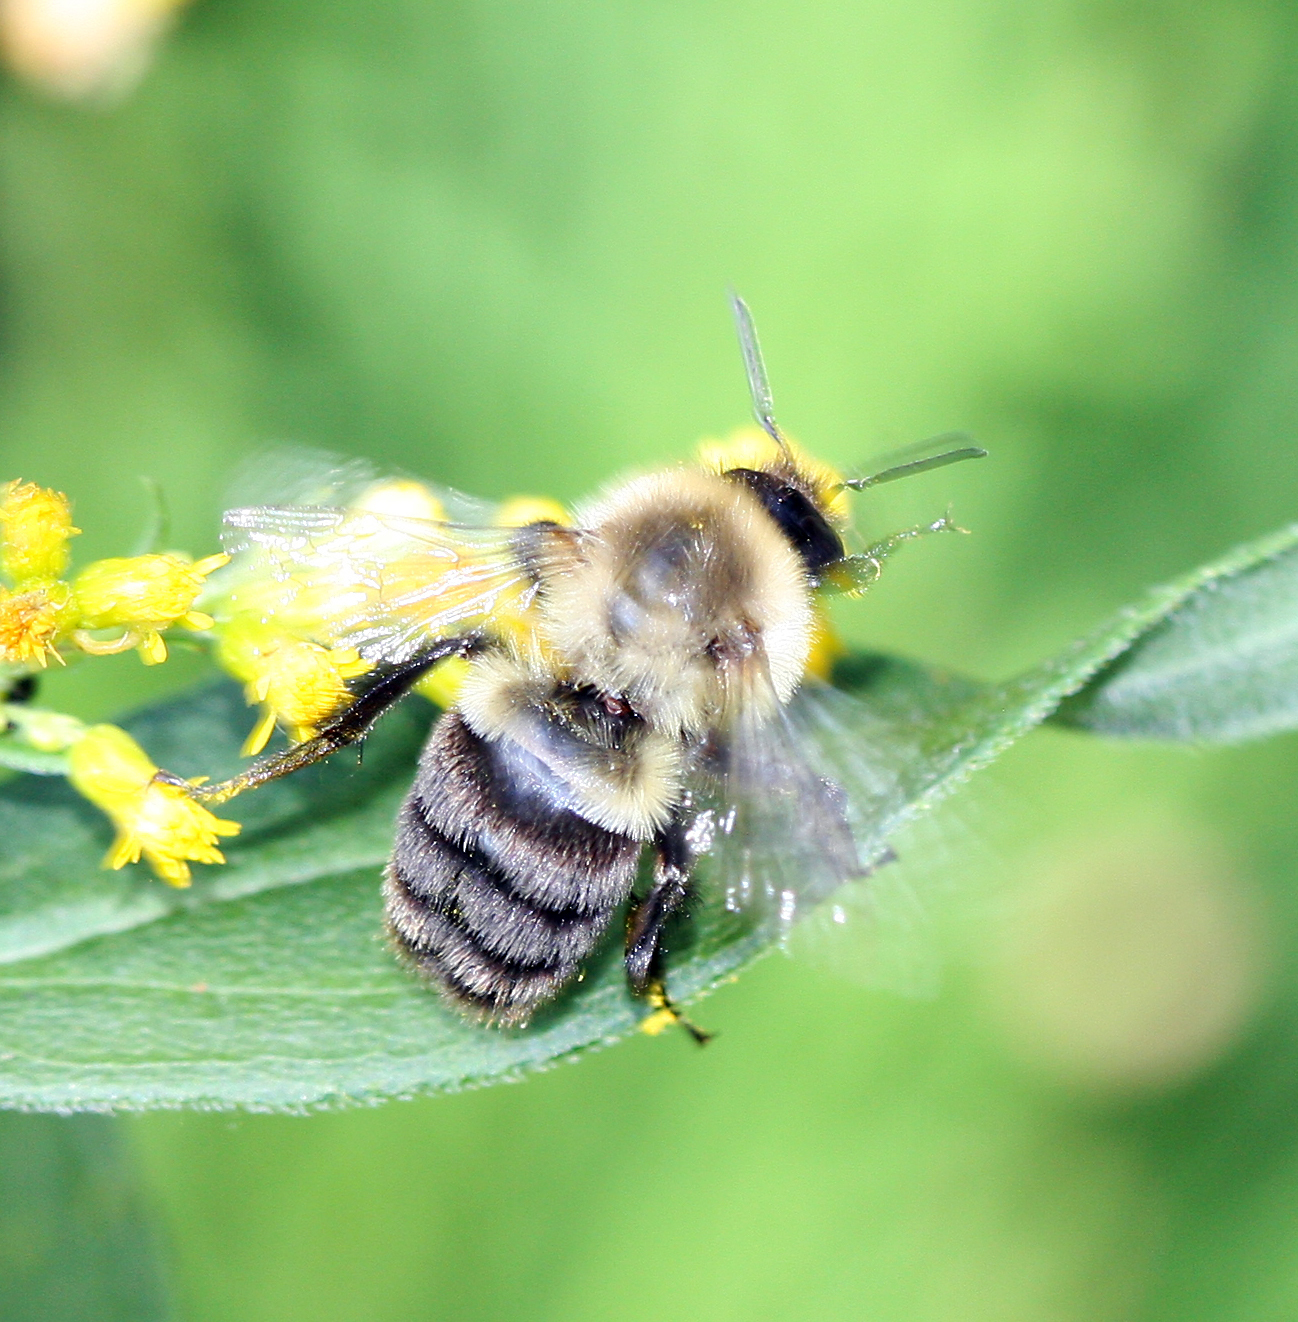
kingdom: Animalia
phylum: Arthropoda
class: Insecta
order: Hymenoptera
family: Apidae
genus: Bombus
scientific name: Bombus impatiens
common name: Common eastern bumble bee
